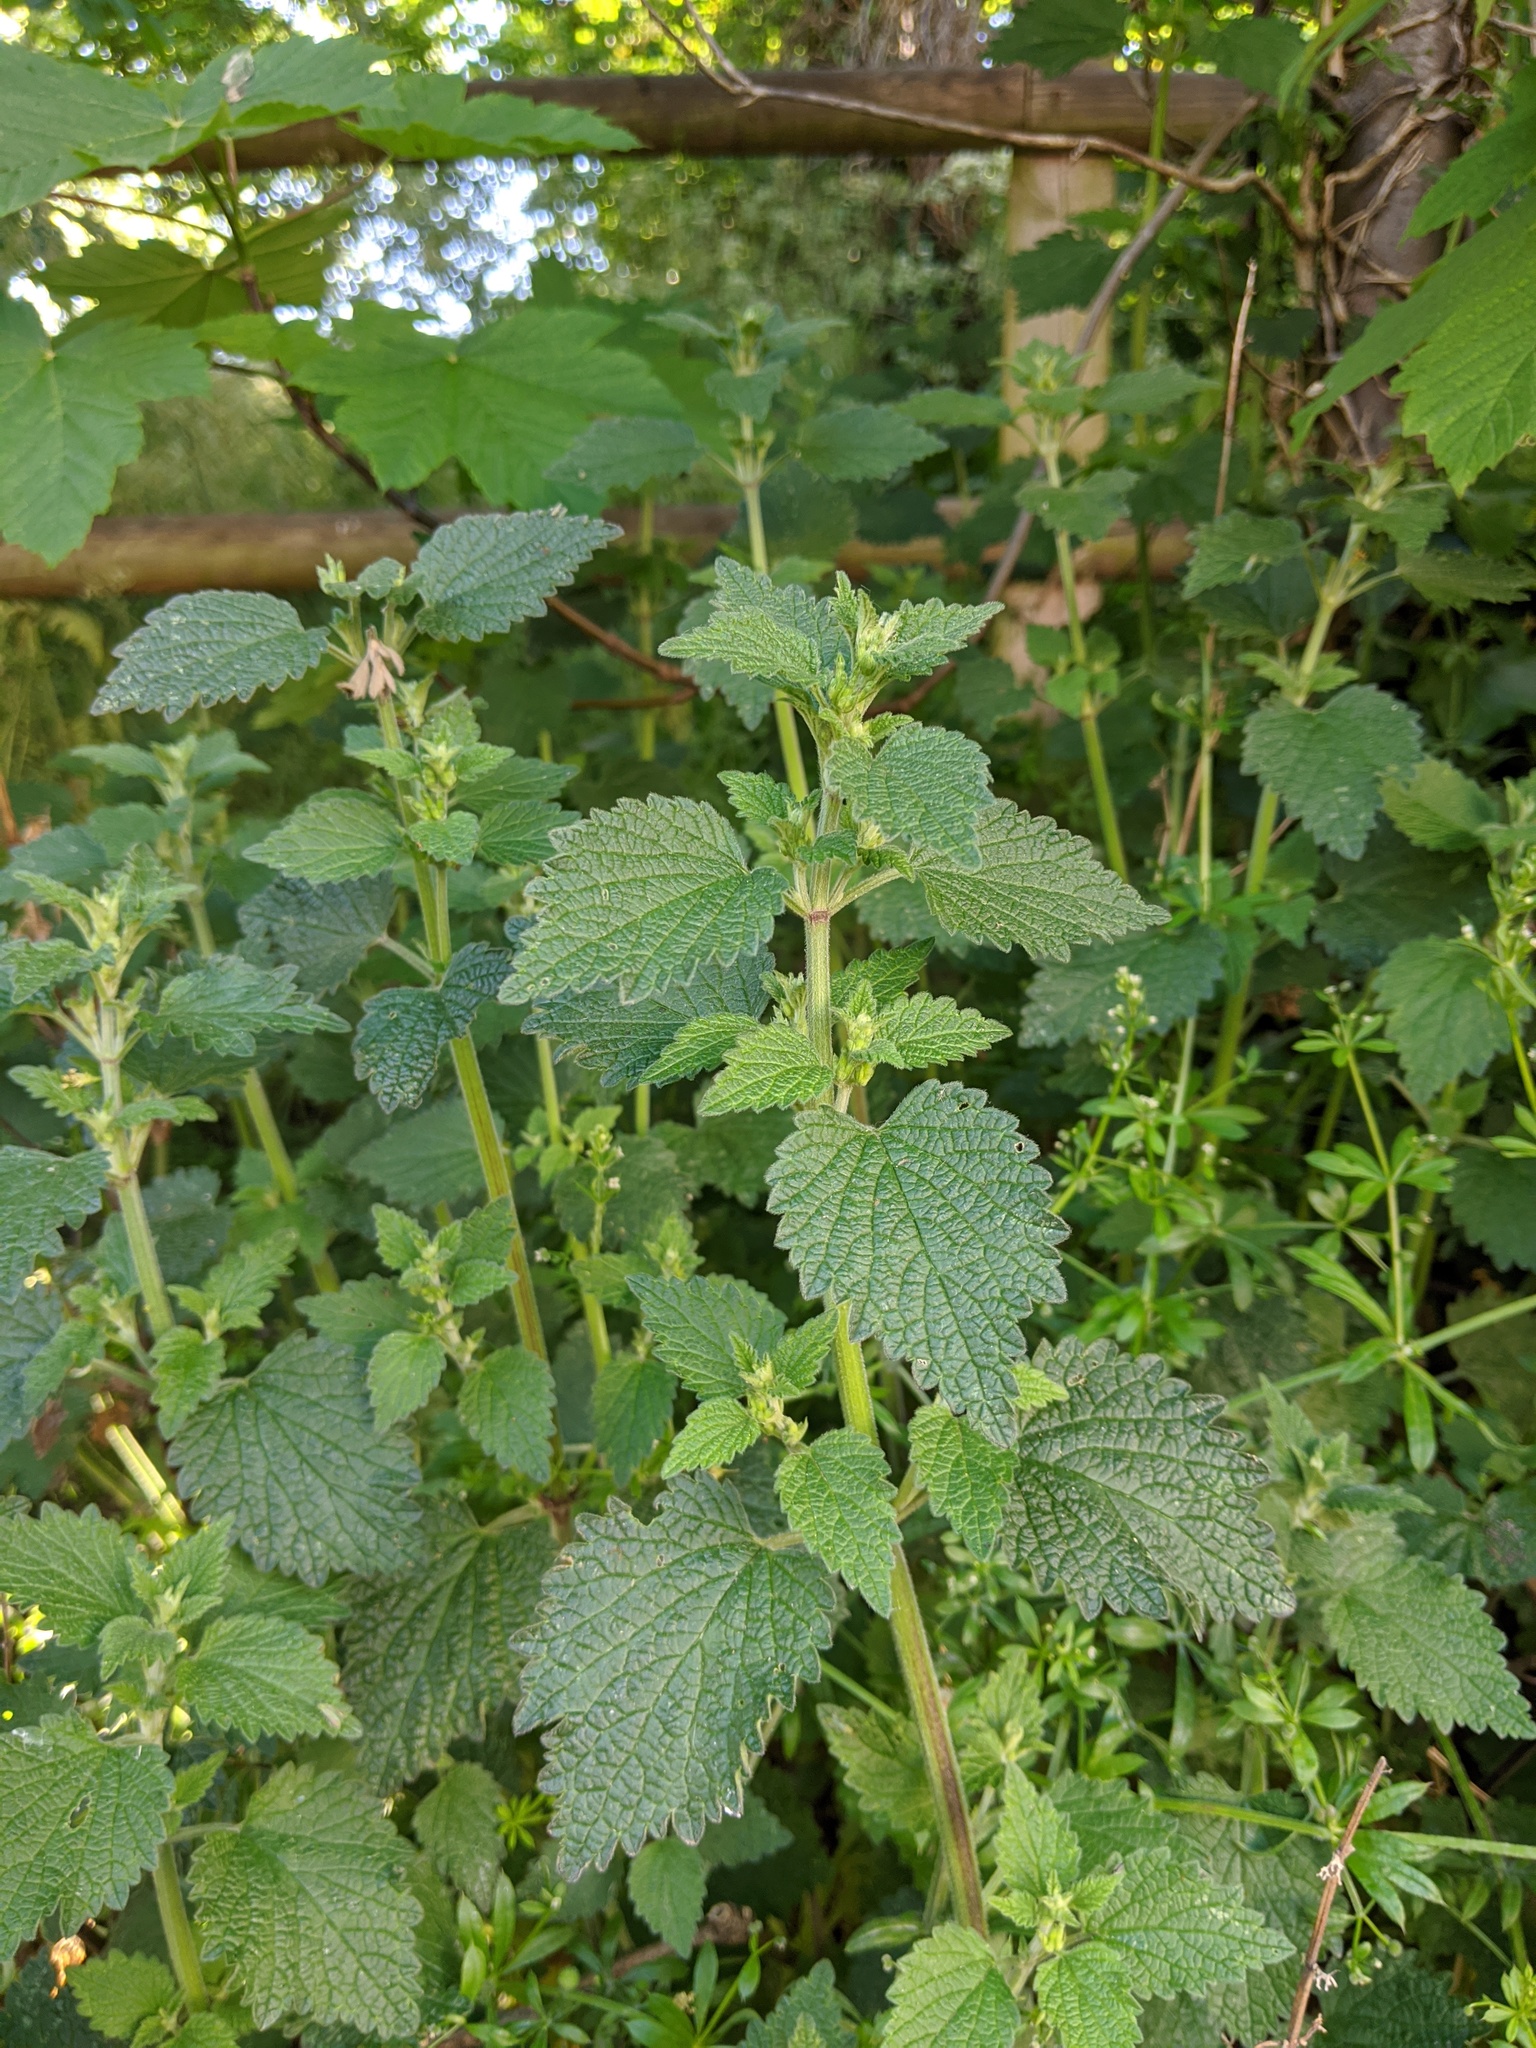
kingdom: Plantae
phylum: Tracheophyta
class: Magnoliopsida
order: Lamiales
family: Lamiaceae
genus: Ballota
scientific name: Ballota nigra
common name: Black horehound
